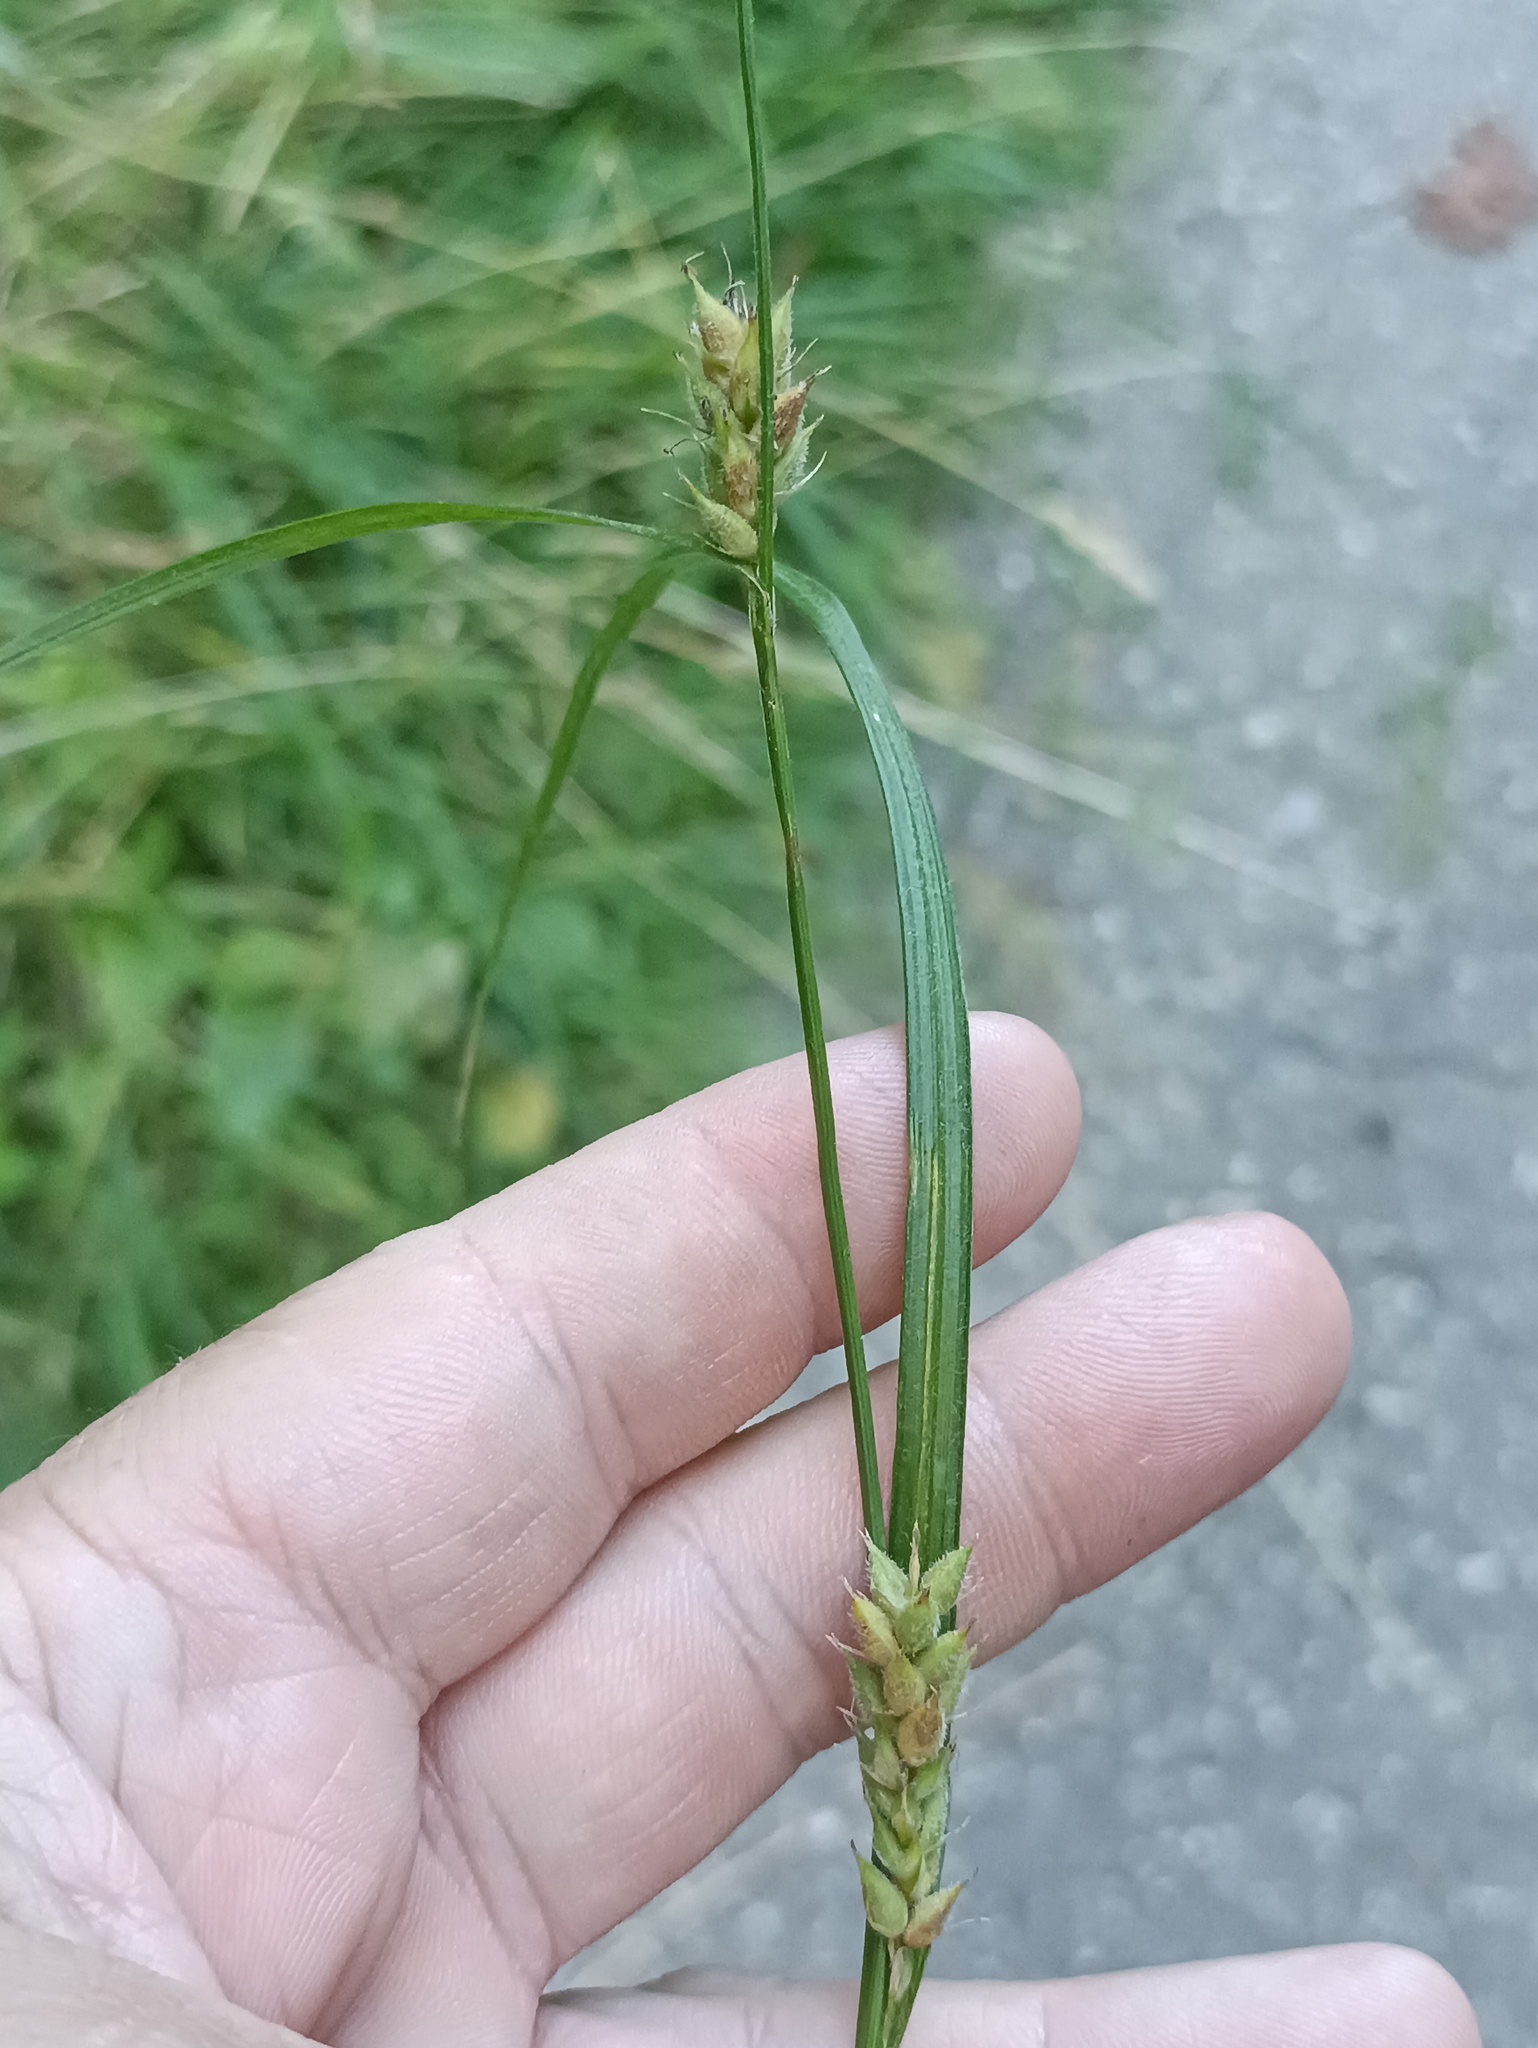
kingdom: Plantae
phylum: Tracheophyta
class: Liliopsida
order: Poales
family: Cyperaceae
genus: Carex
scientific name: Carex hirta
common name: Hairy sedge
